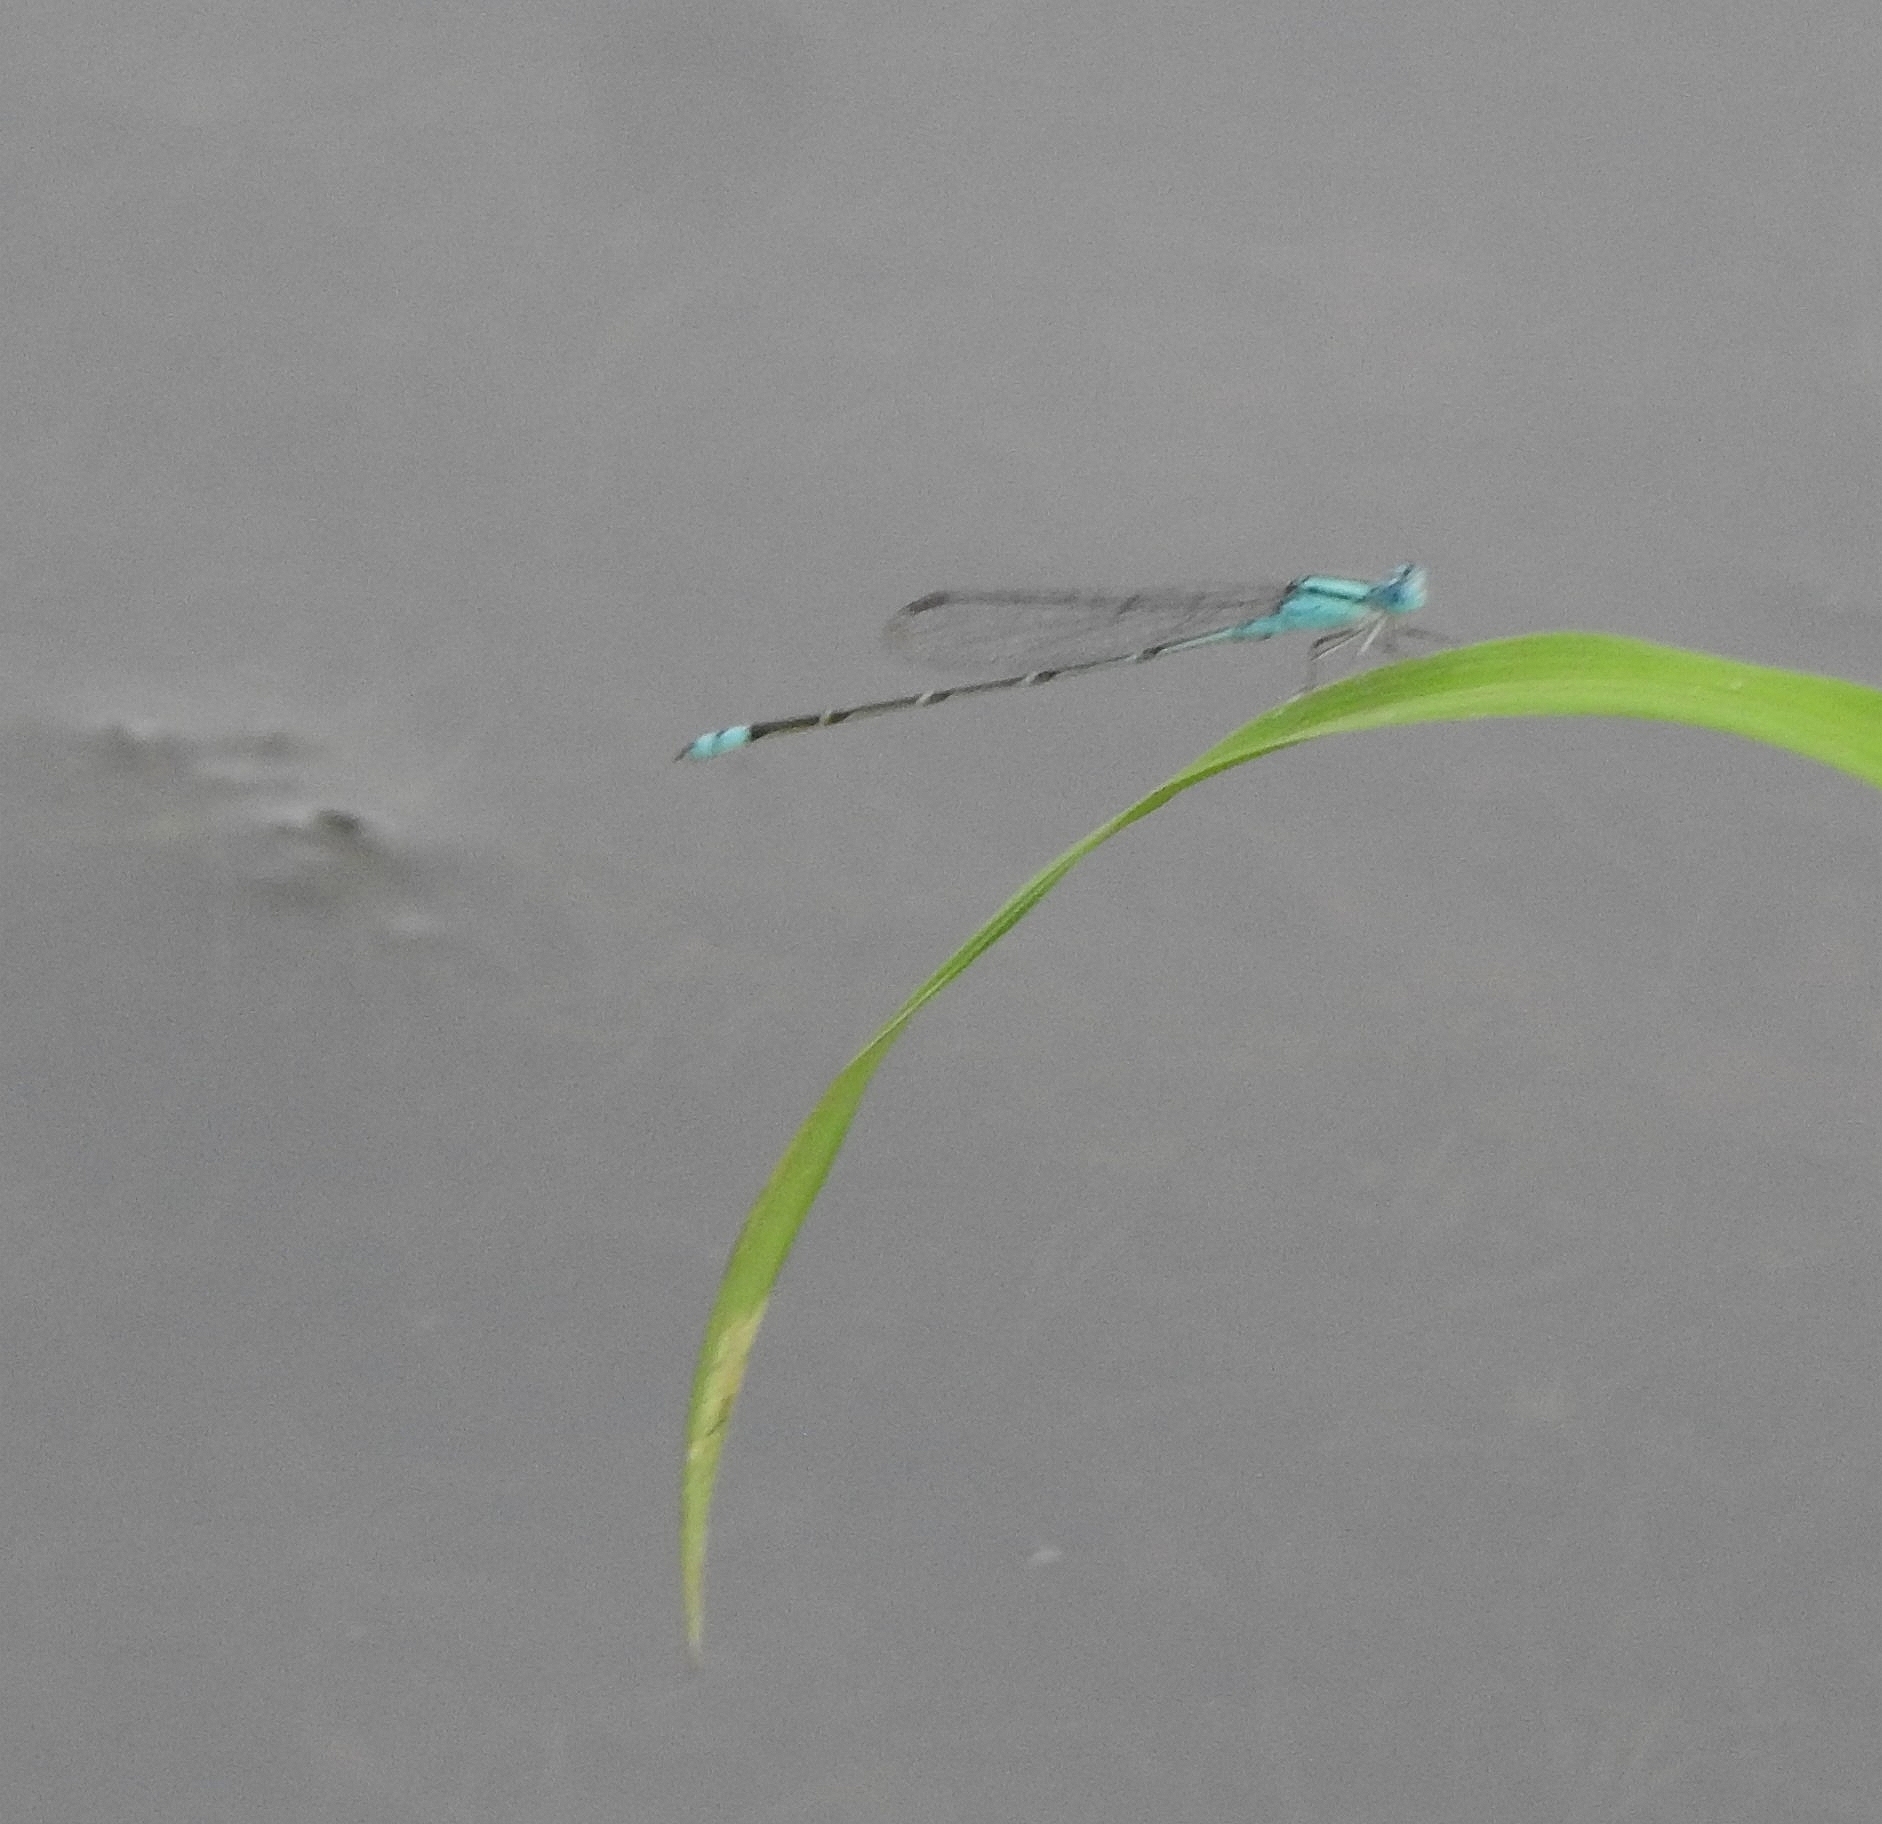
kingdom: Animalia
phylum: Arthropoda
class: Insecta
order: Odonata
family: Coenagrionidae
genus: Pseudagrion
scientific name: Pseudagrion microcephalum
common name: Blue riverdamsel
